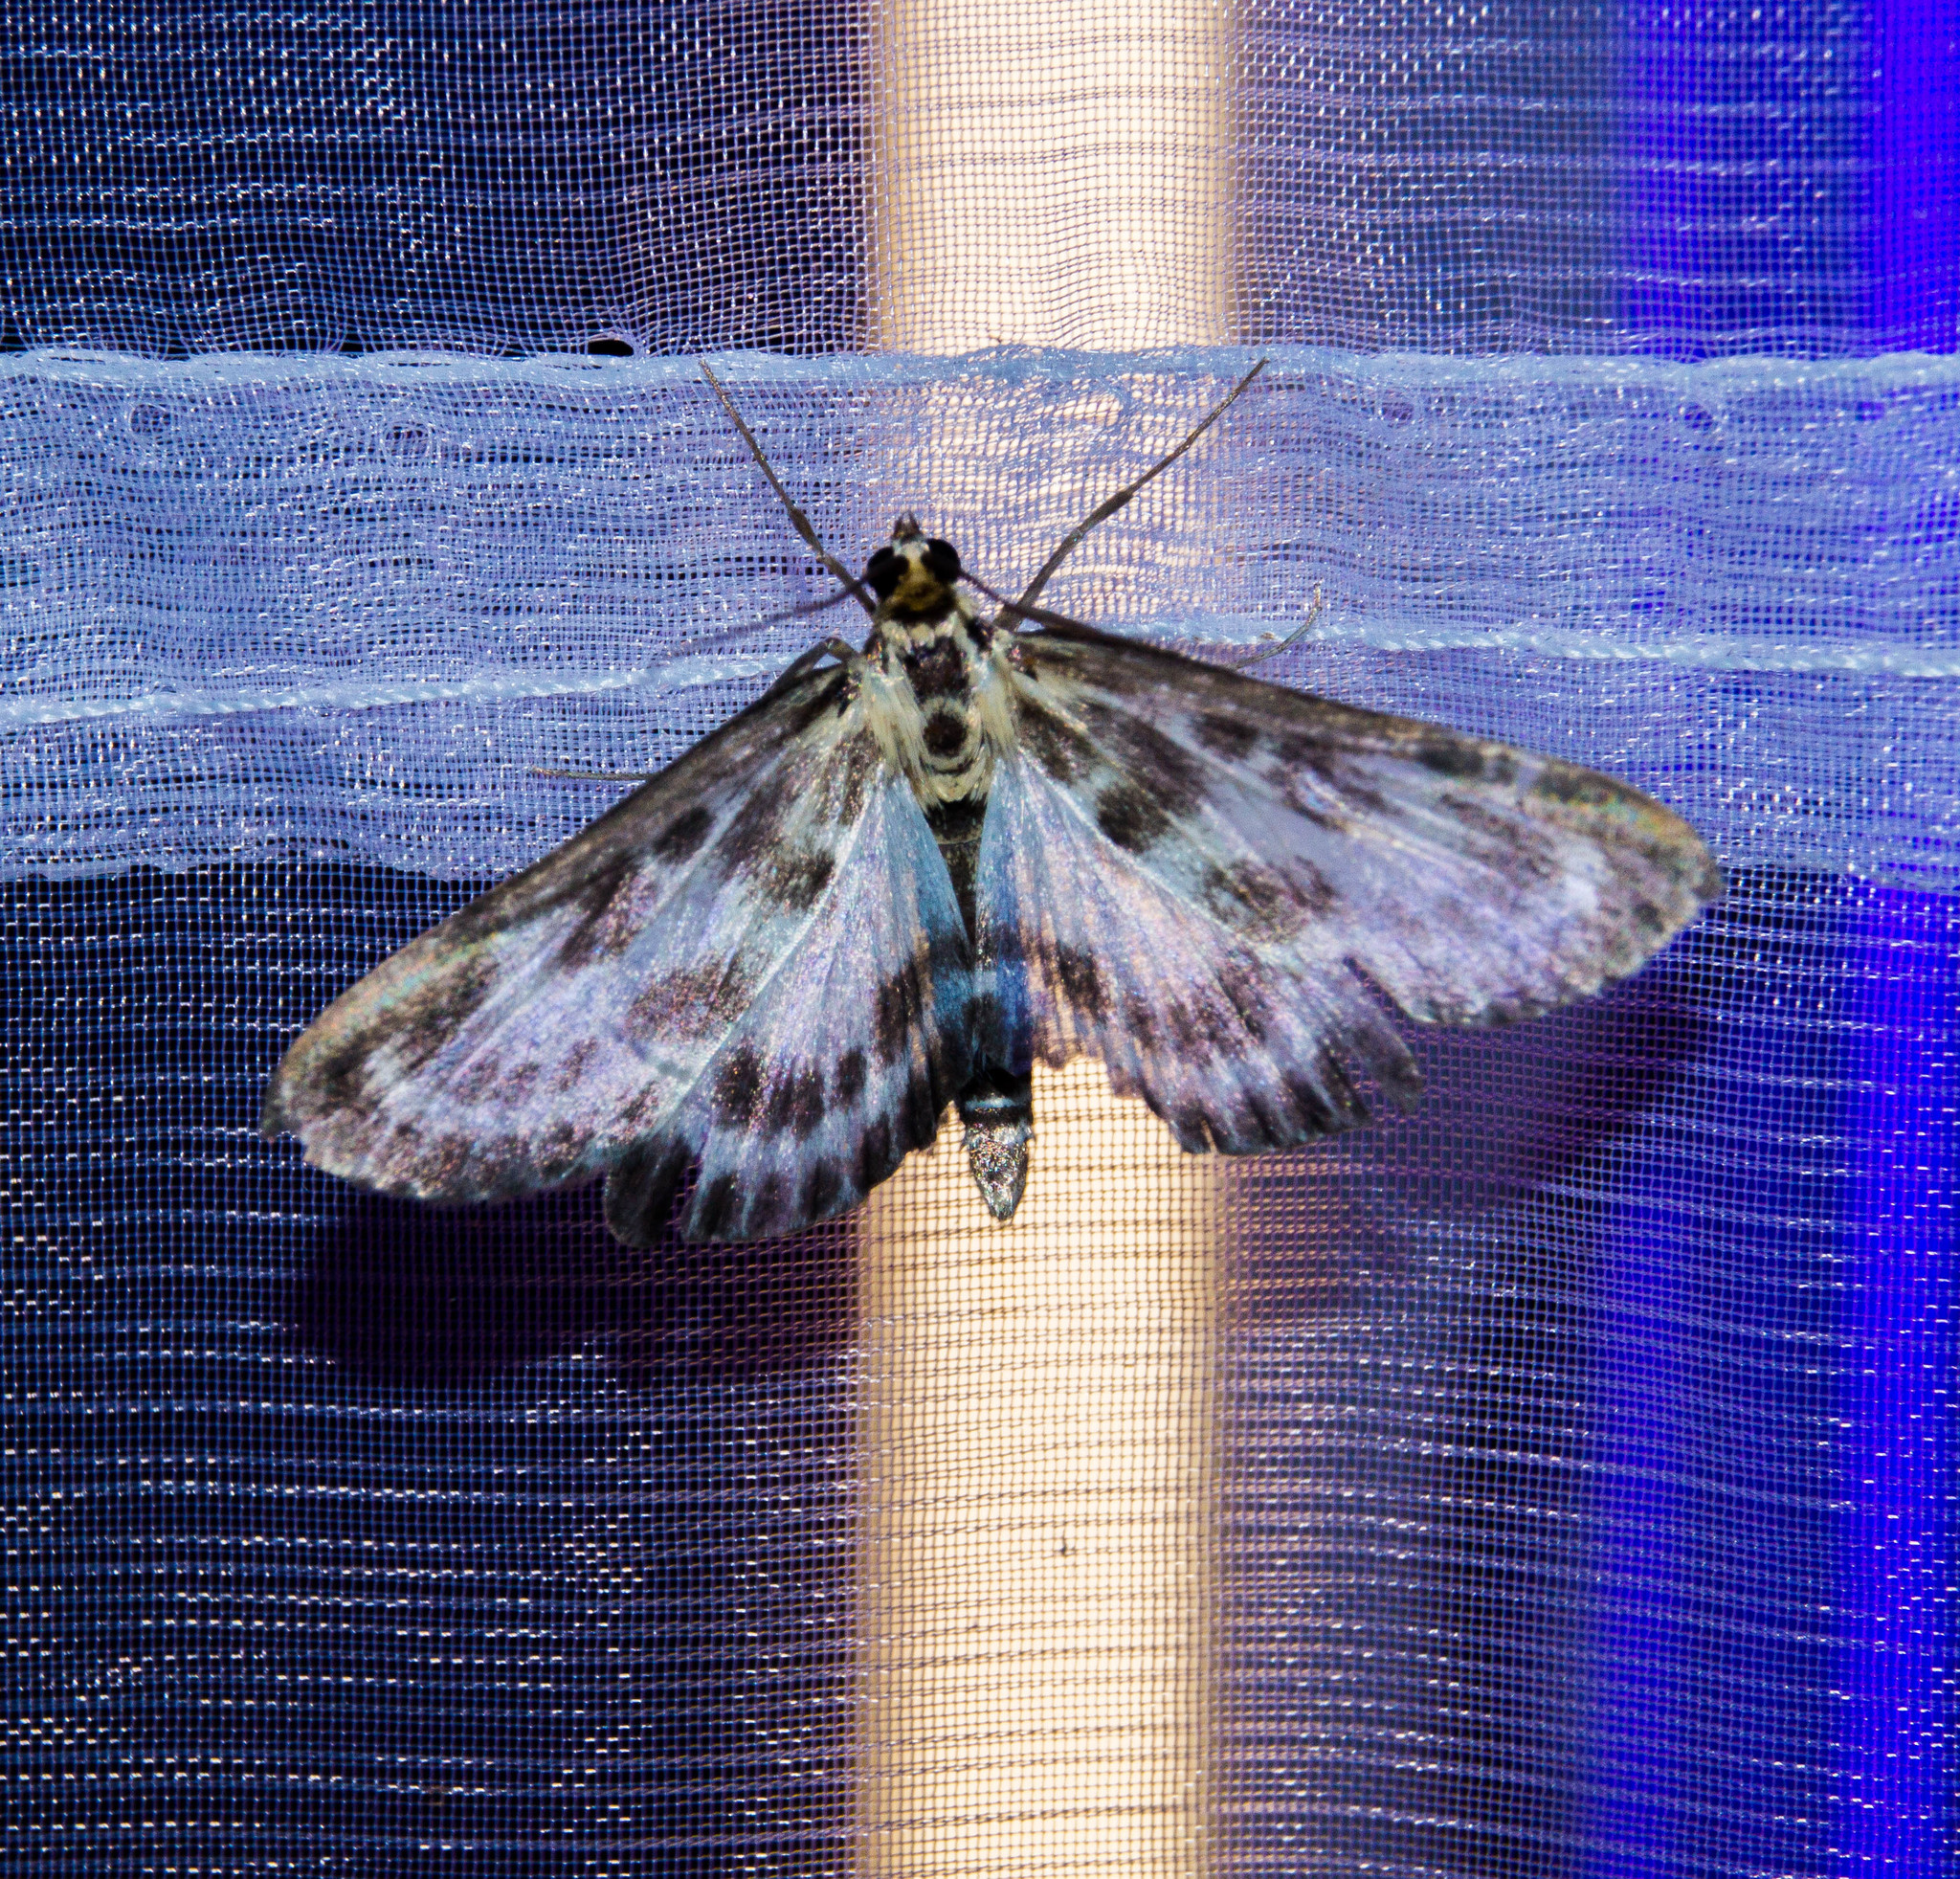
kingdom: Animalia
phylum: Arthropoda
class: Insecta
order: Lepidoptera
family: Crambidae
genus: Anania
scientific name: Anania hortulata
